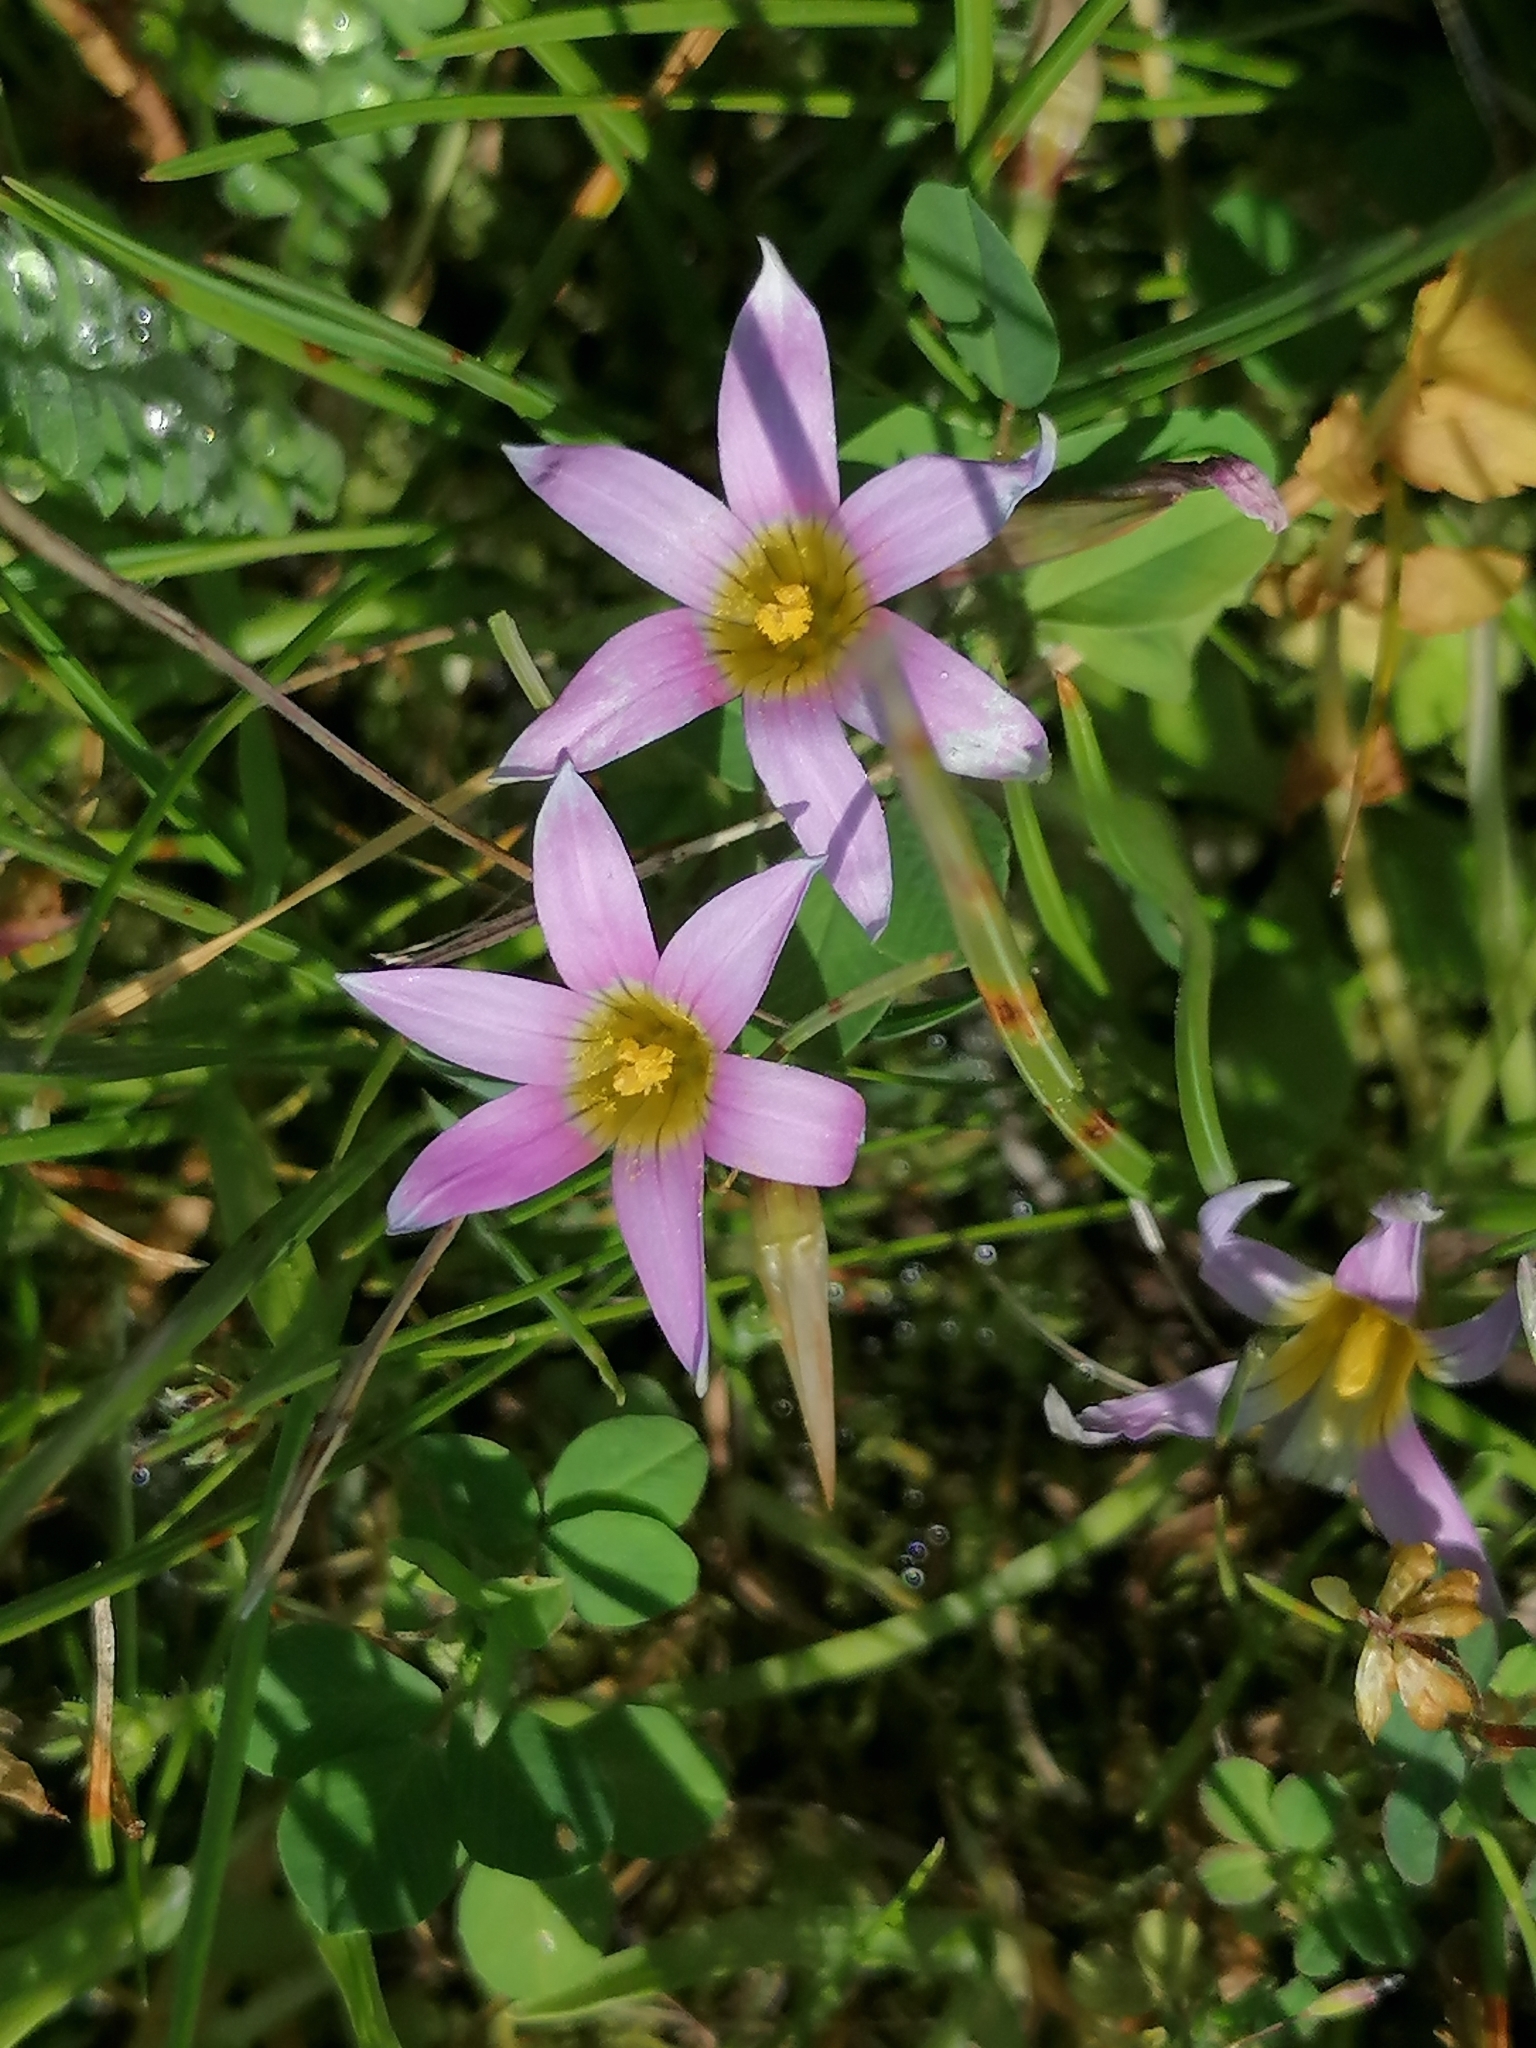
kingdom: Plantae
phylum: Tracheophyta
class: Liliopsida
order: Asparagales
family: Iridaceae
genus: Romulea
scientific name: Romulea rosea
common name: Oniongrass
